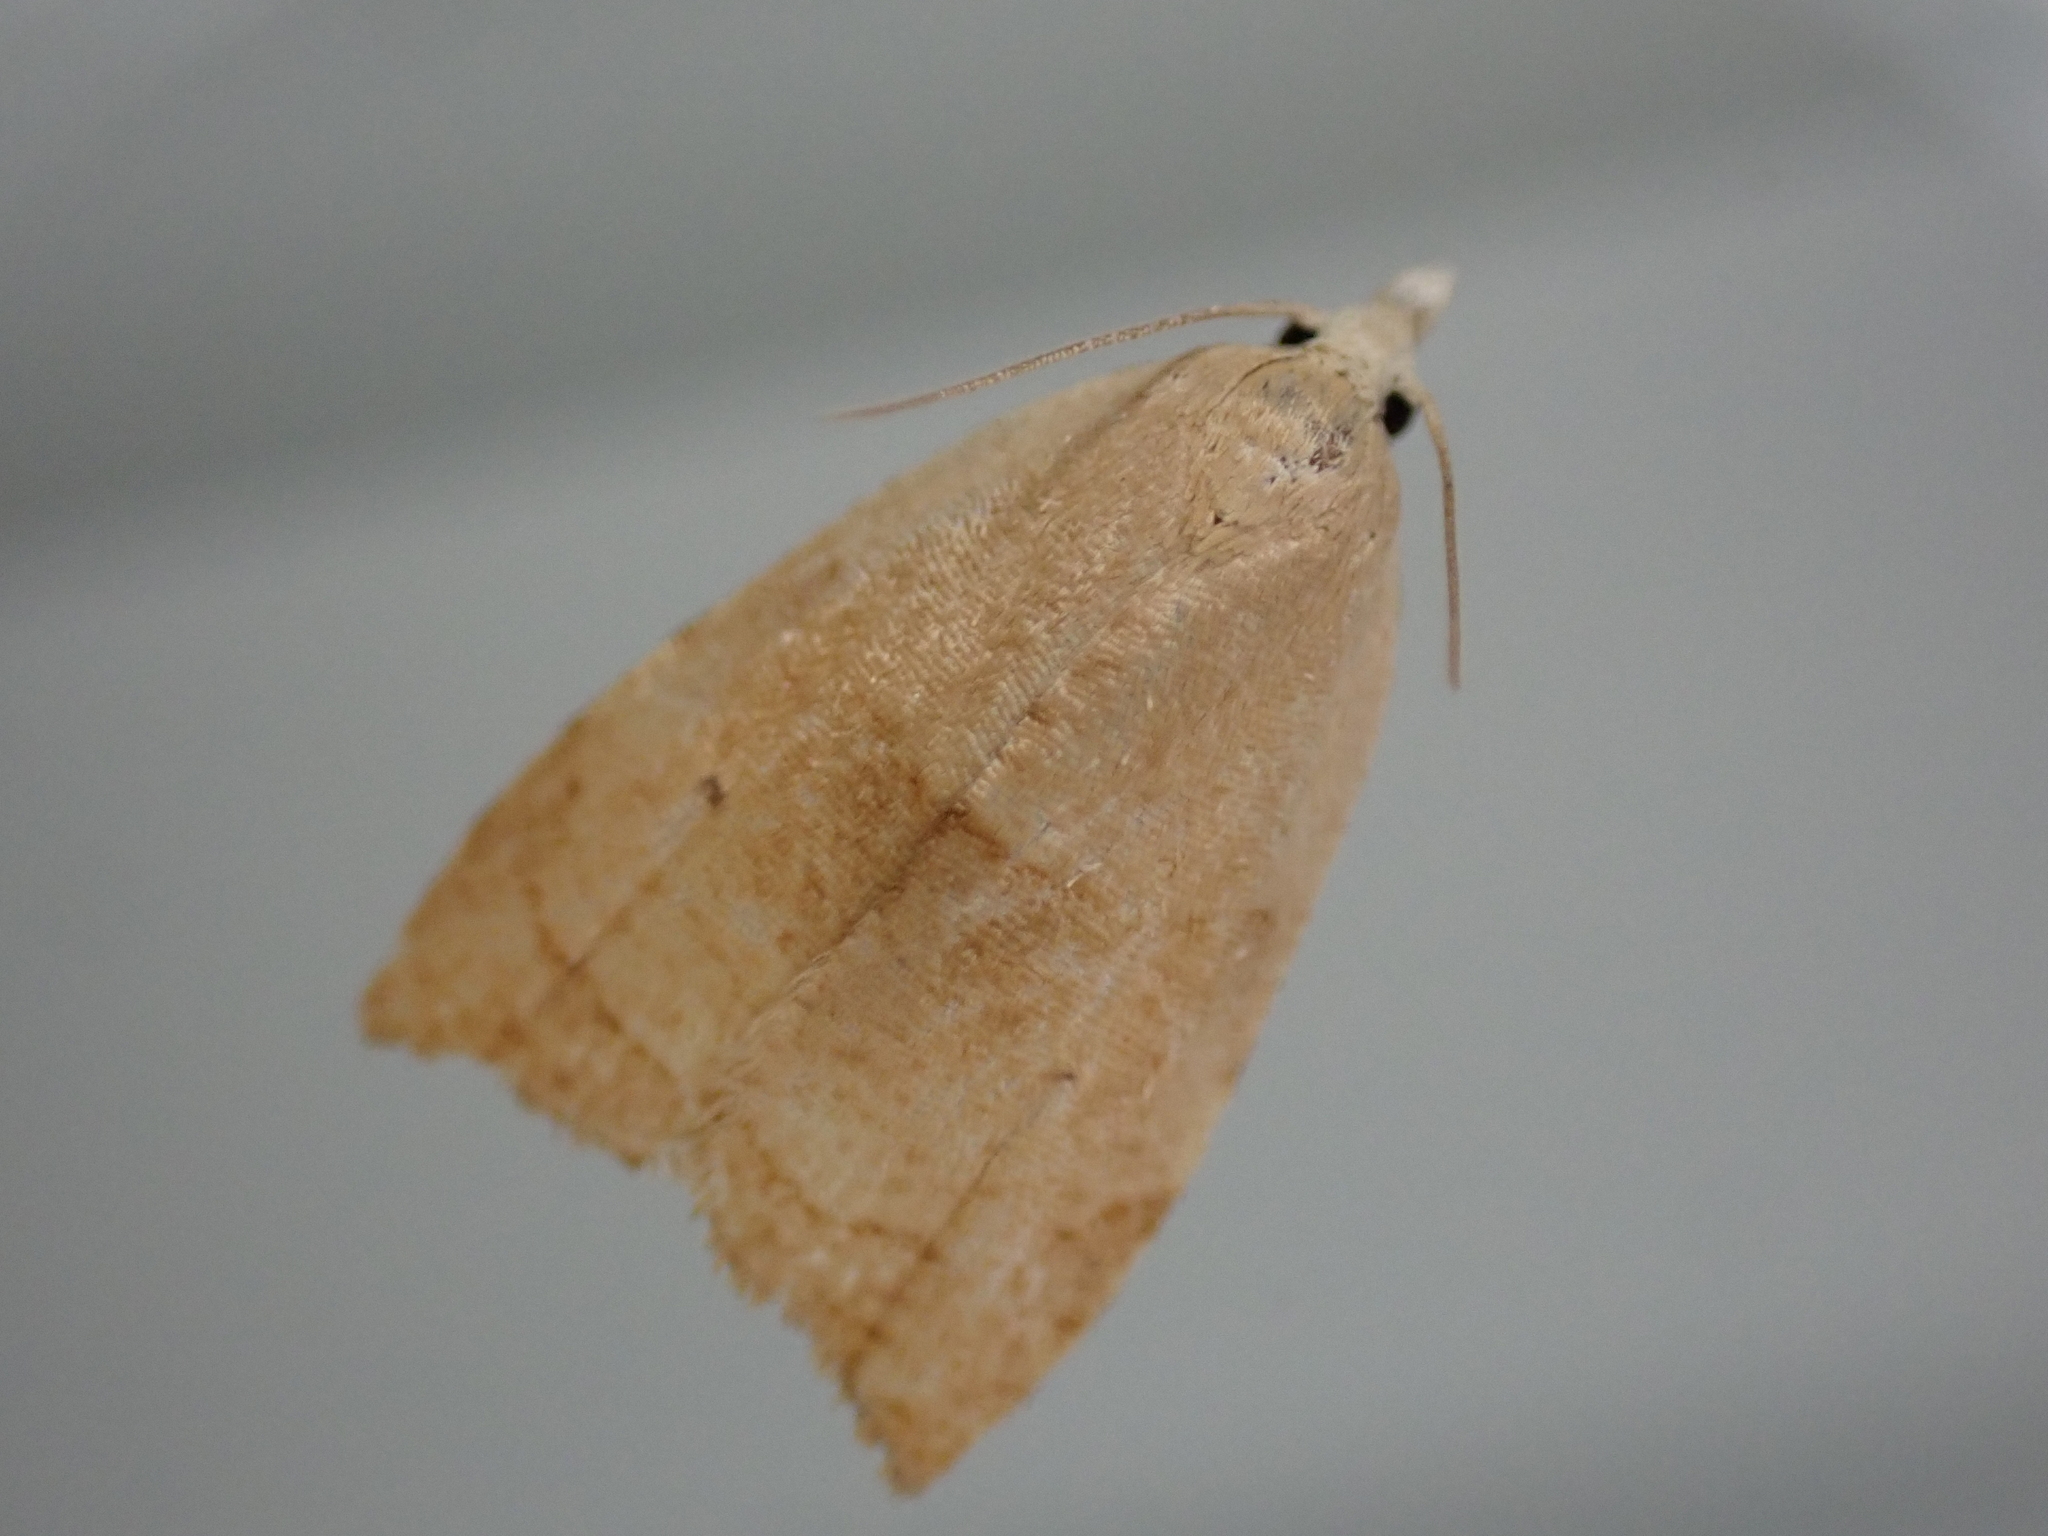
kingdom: Animalia
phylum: Arthropoda
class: Insecta
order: Lepidoptera
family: Tortricidae
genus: Coelostathma
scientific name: Coelostathma discopunctana
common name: Batman moth
